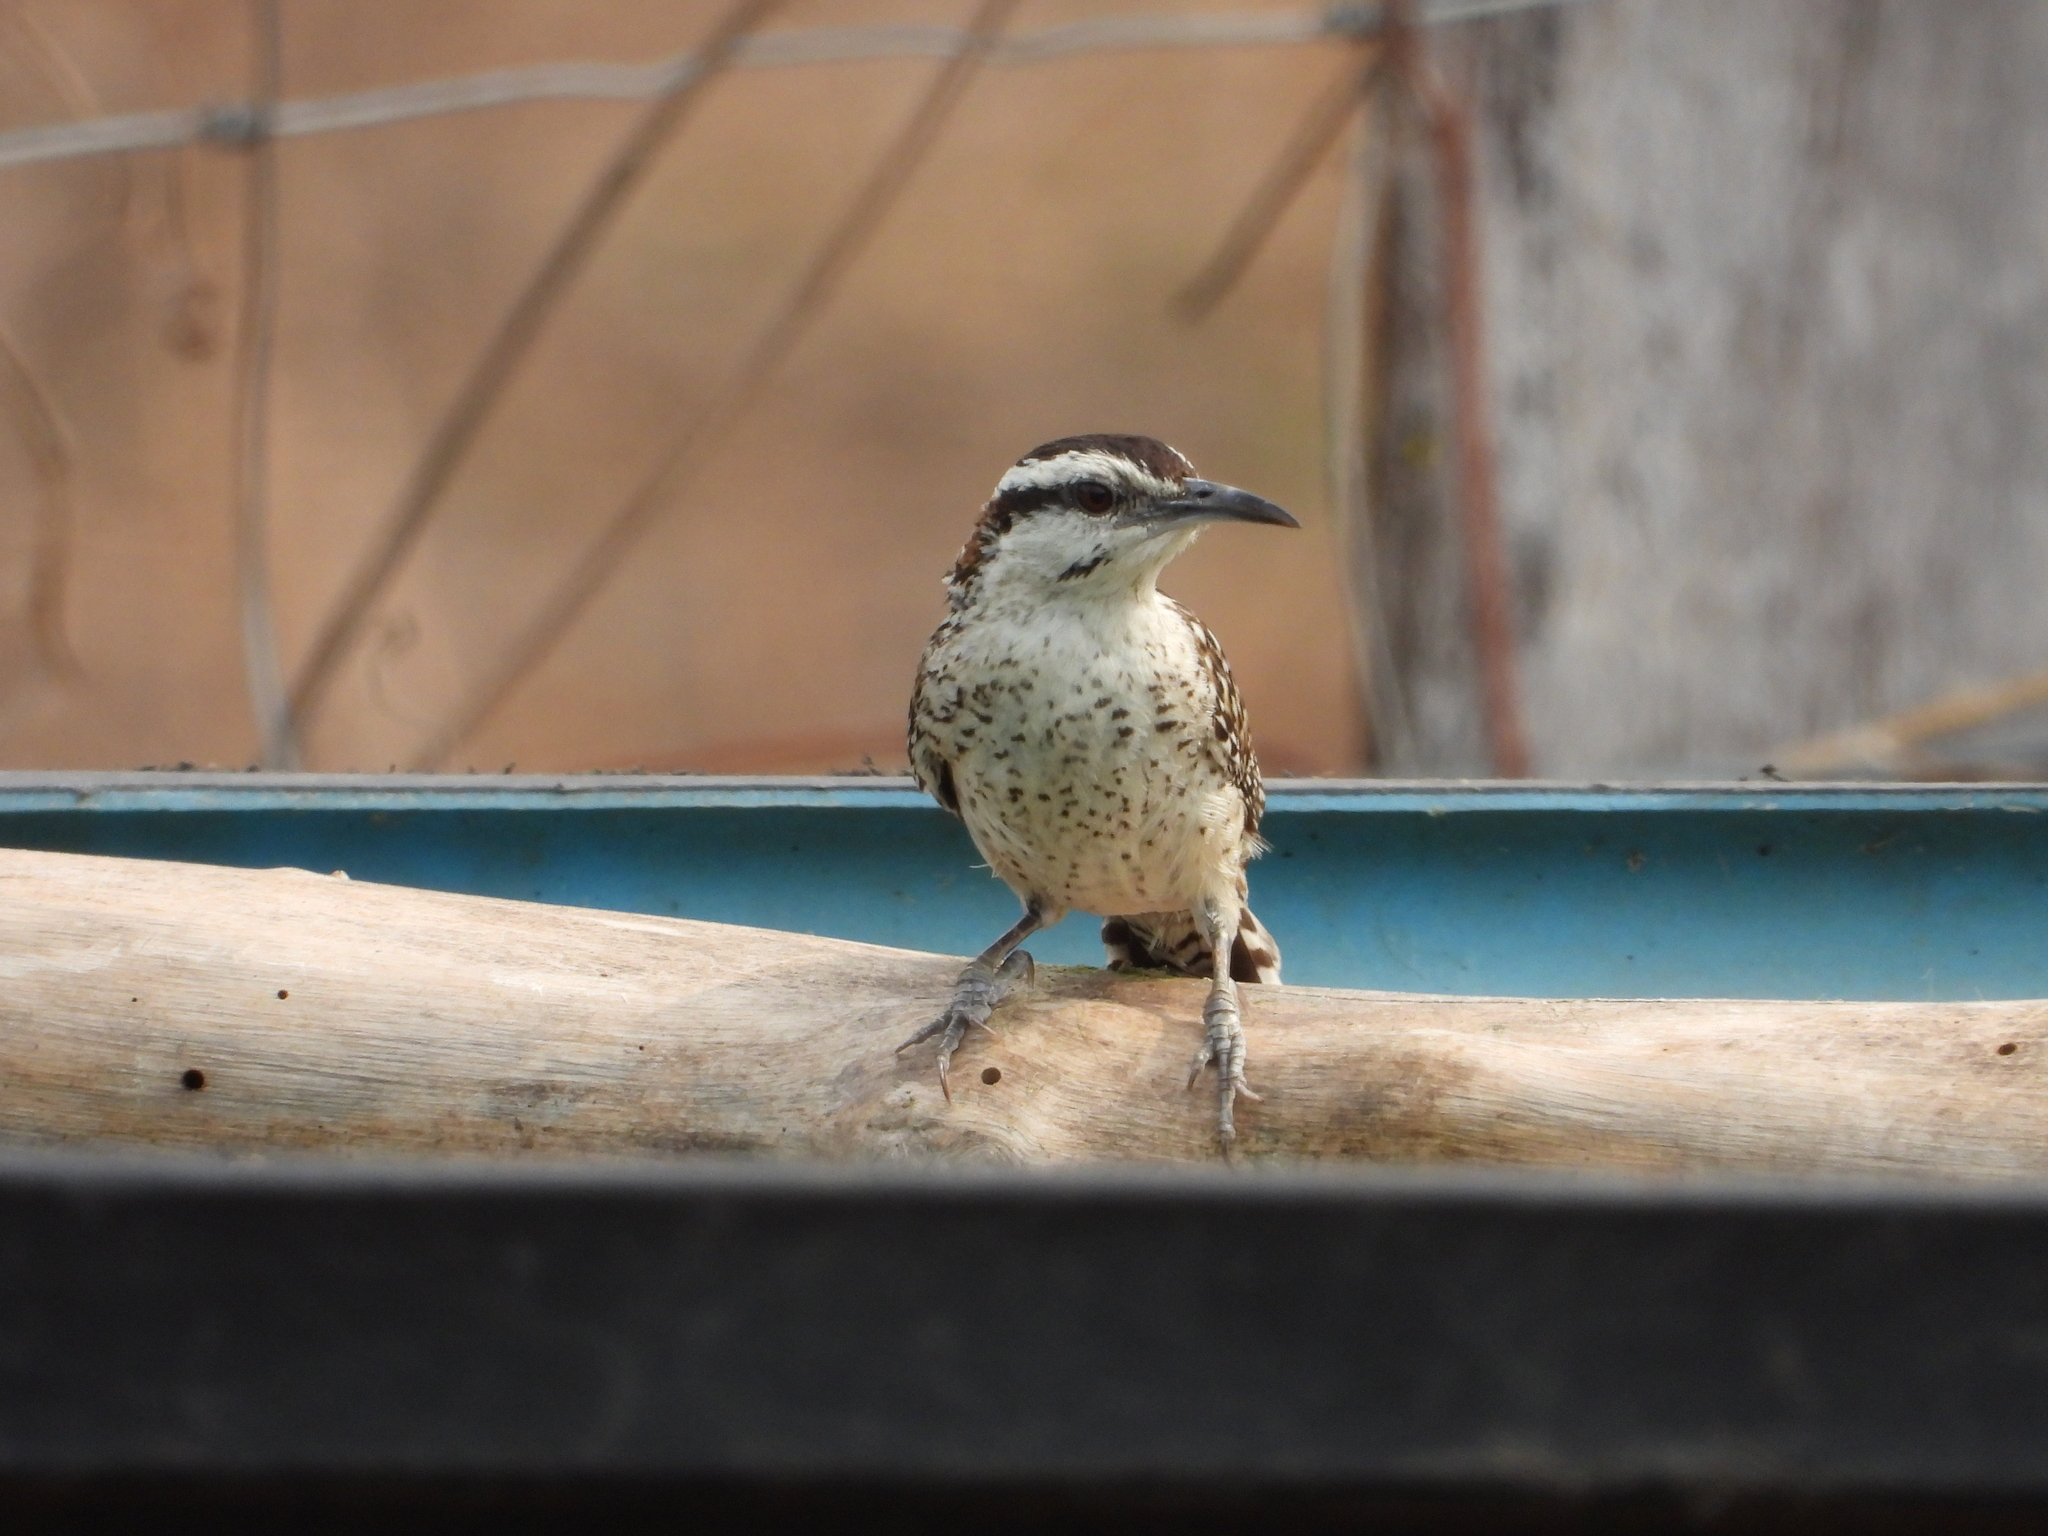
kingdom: Animalia
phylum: Chordata
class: Aves
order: Passeriformes
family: Troglodytidae
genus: Campylorhynchus
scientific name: Campylorhynchus rufinucha
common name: Rufous-naped wren
